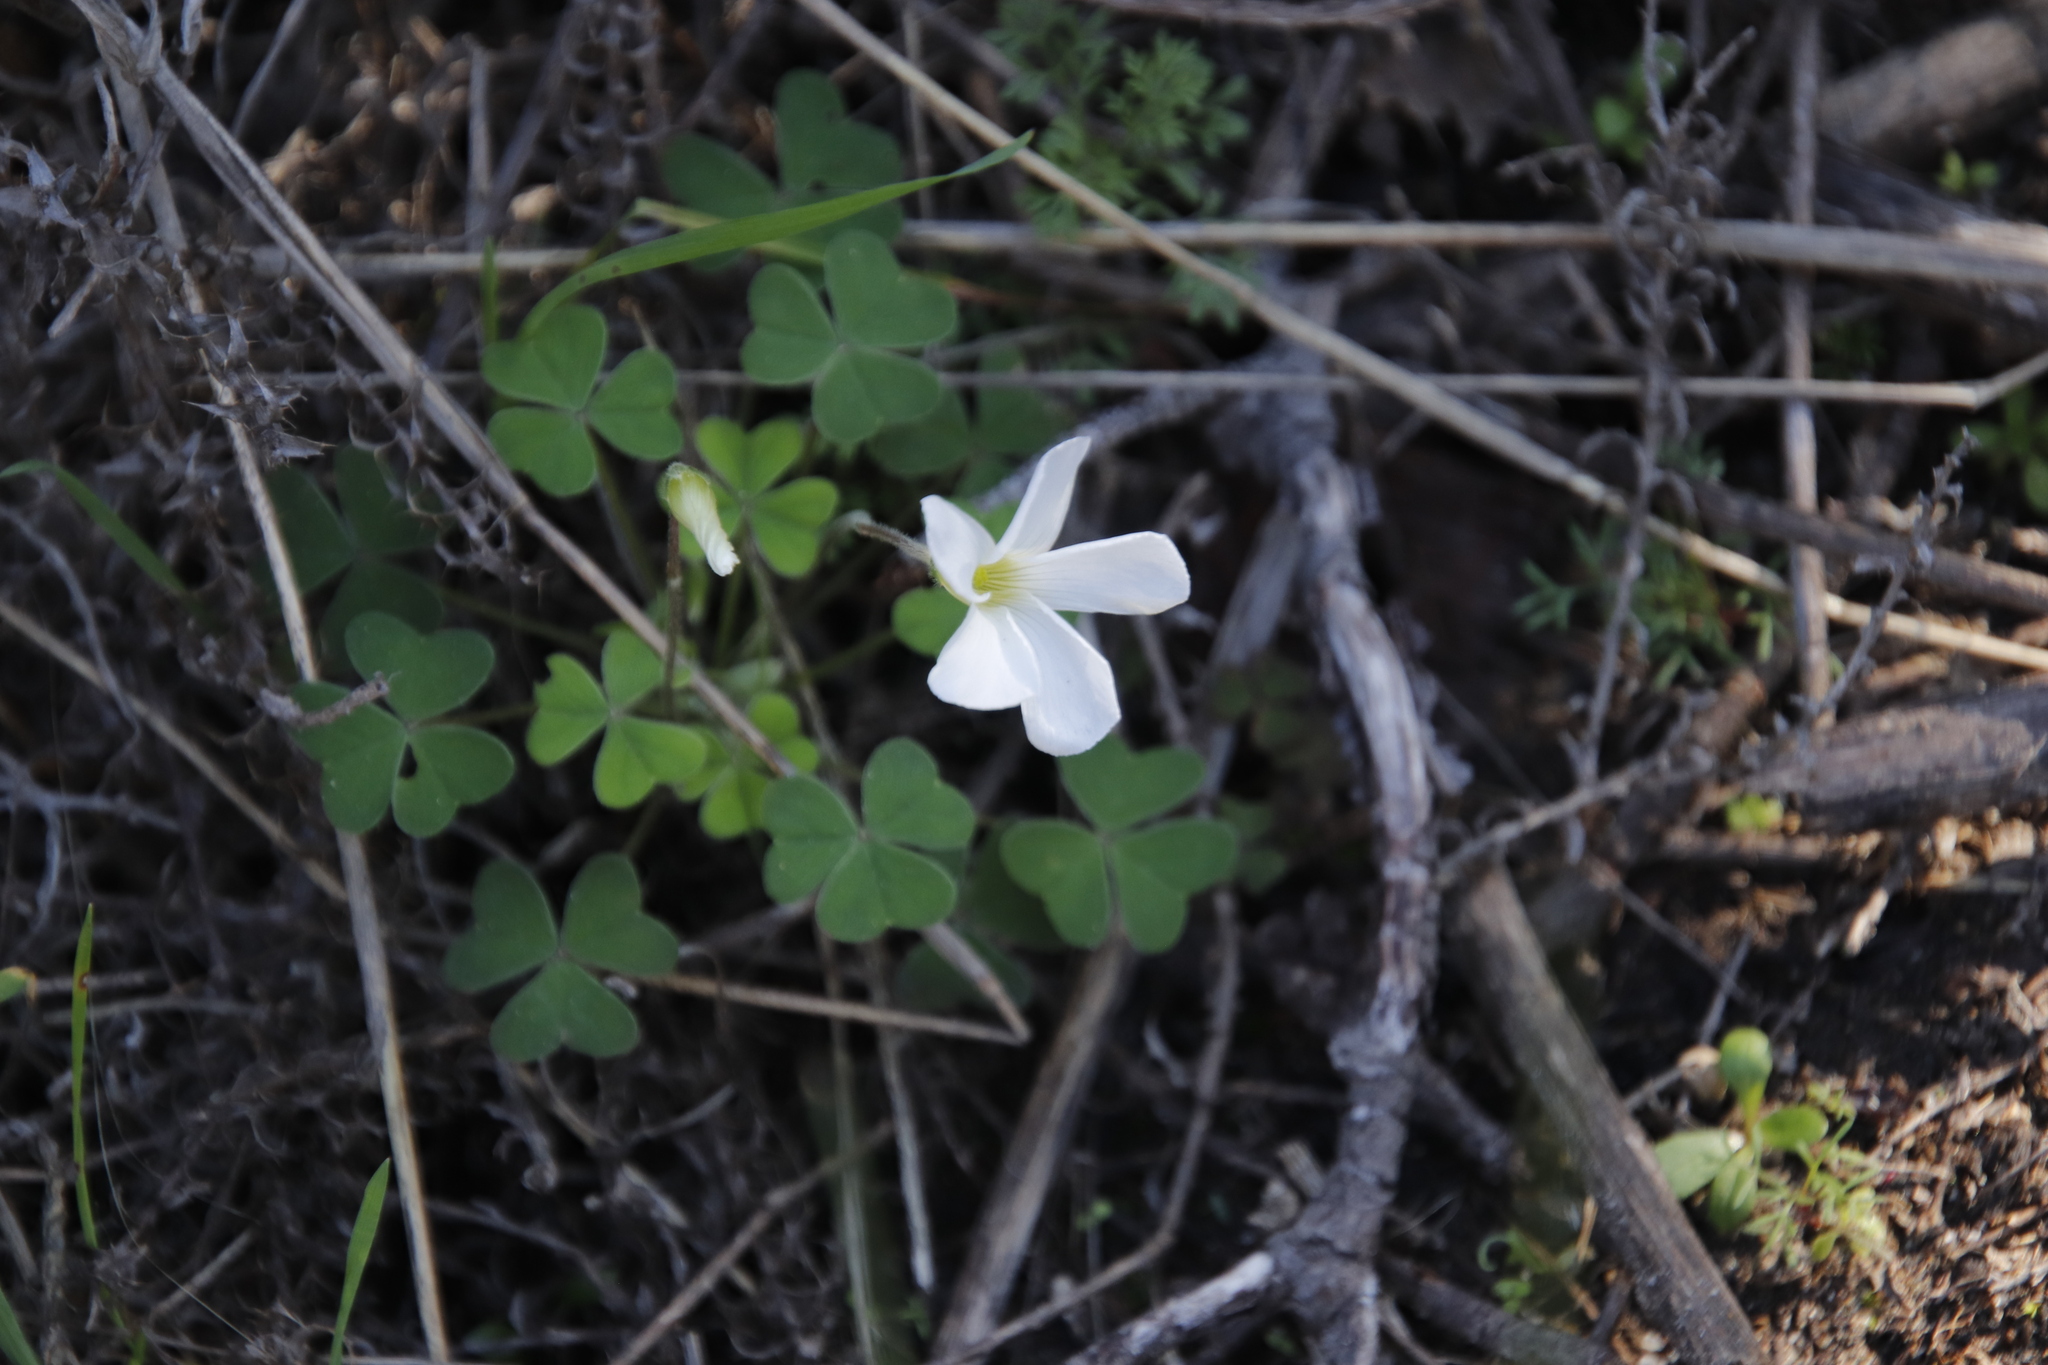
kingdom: Plantae
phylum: Tracheophyta
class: Magnoliopsida
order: Oxalidales
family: Oxalidaceae
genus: Oxalis
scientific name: Oxalis lanata
